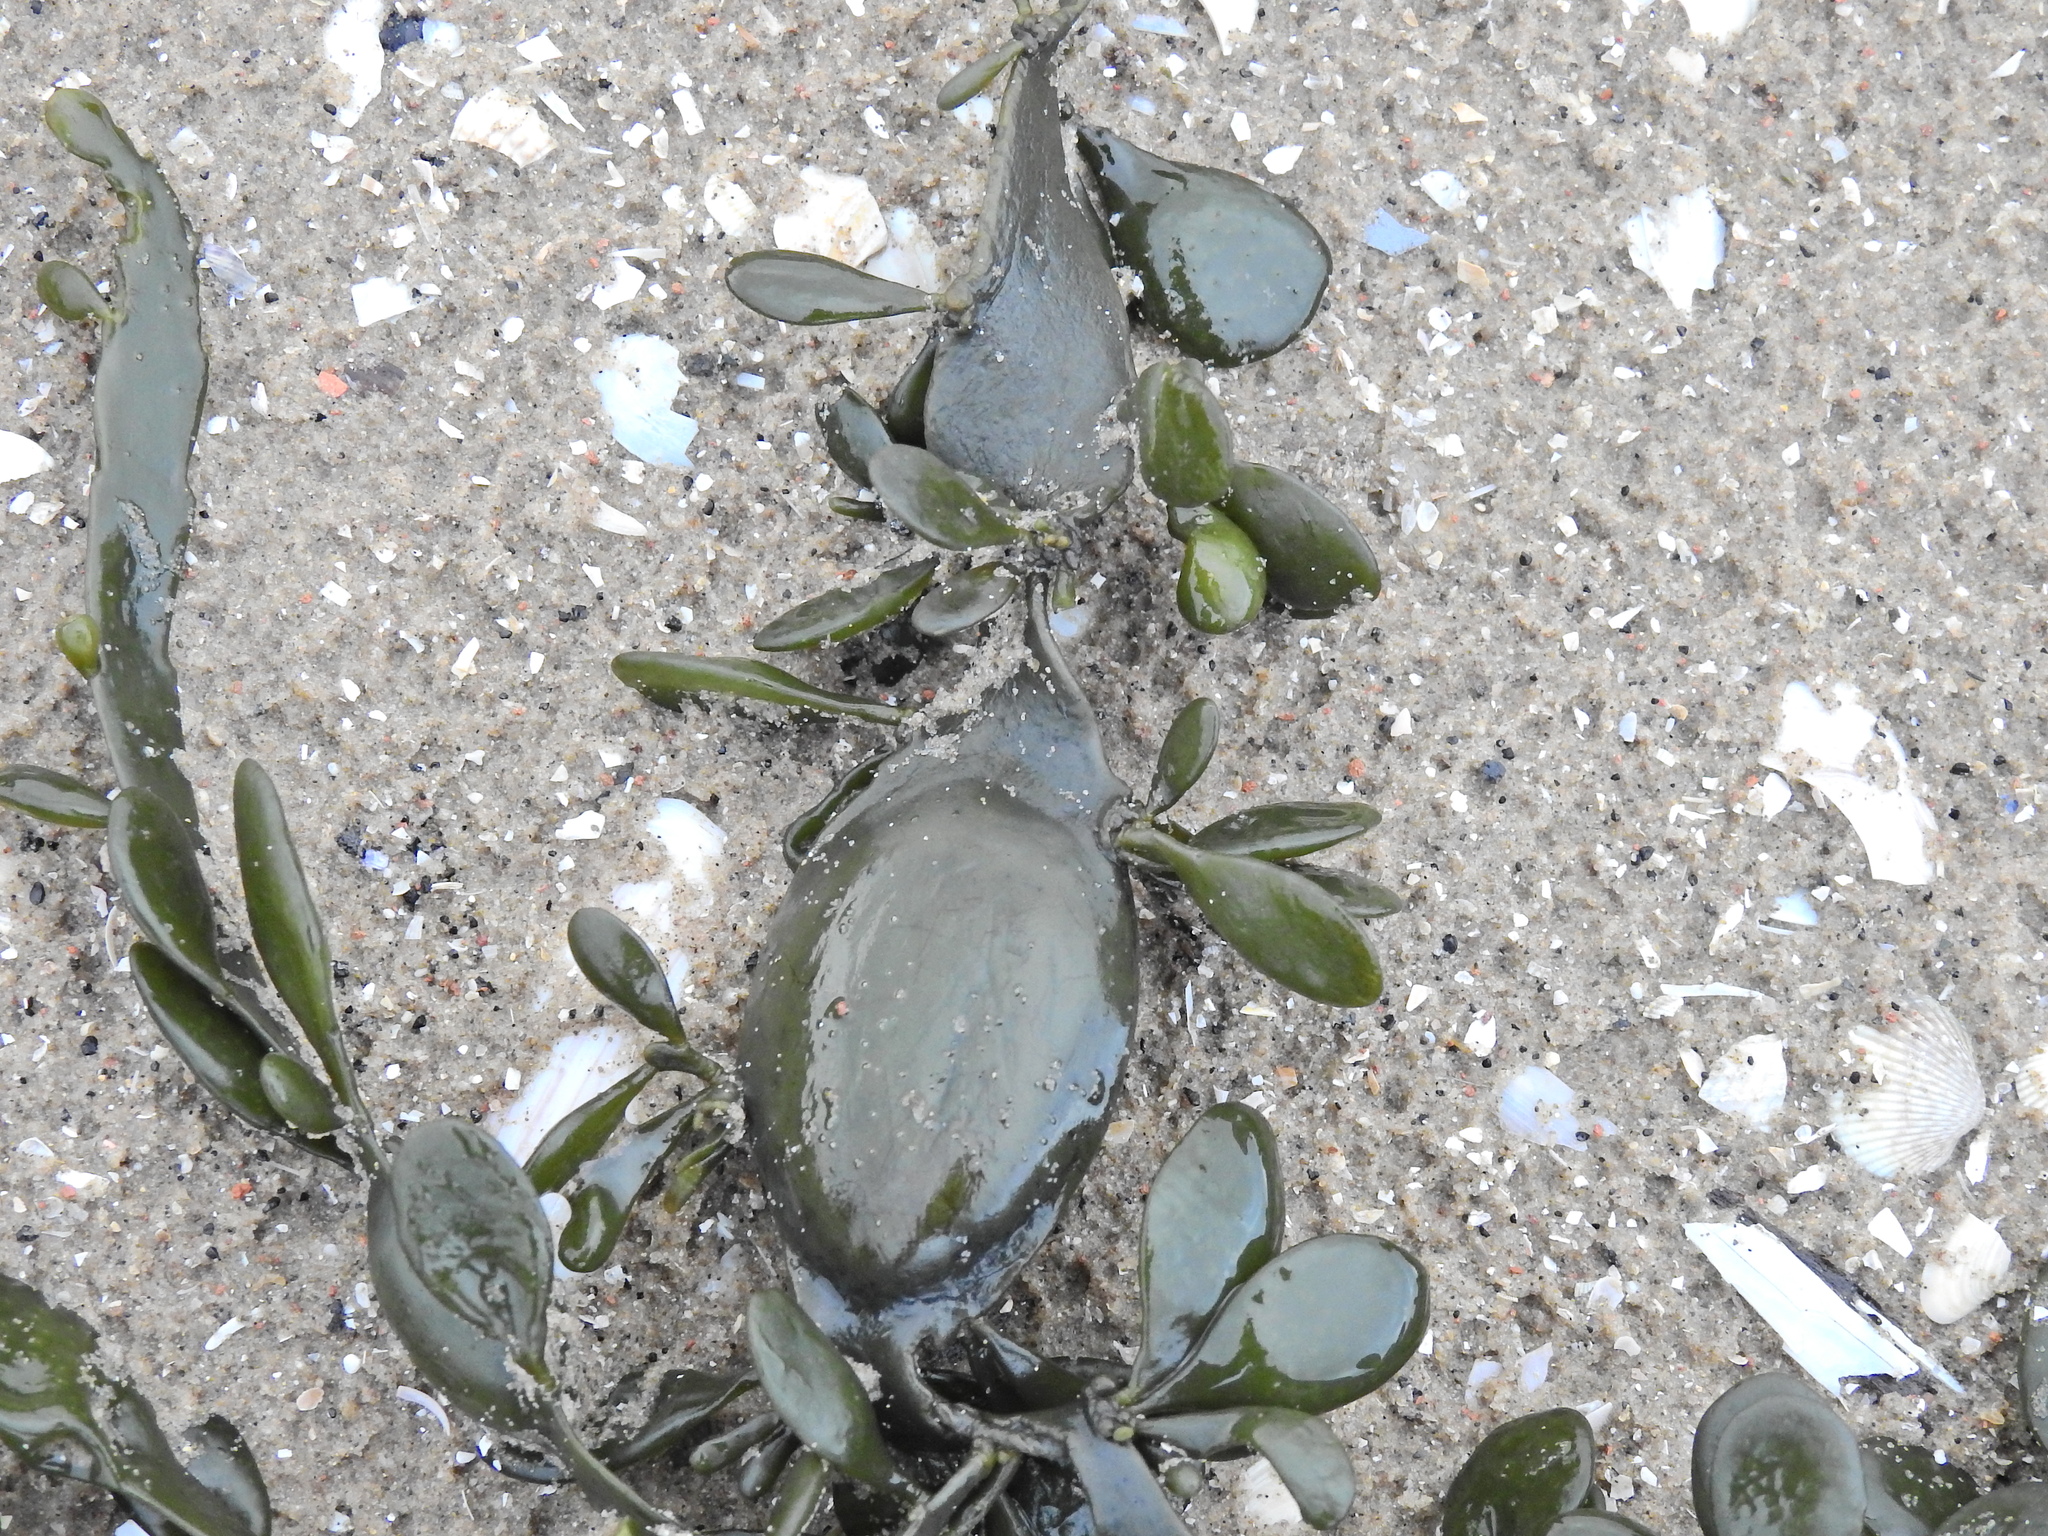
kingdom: Chromista
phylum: Ochrophyta
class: Phaeophyceae
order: Fucales
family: Fucaceae
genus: Ascophyllum
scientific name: Ascophyllum nodosum
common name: Knotted wrack
